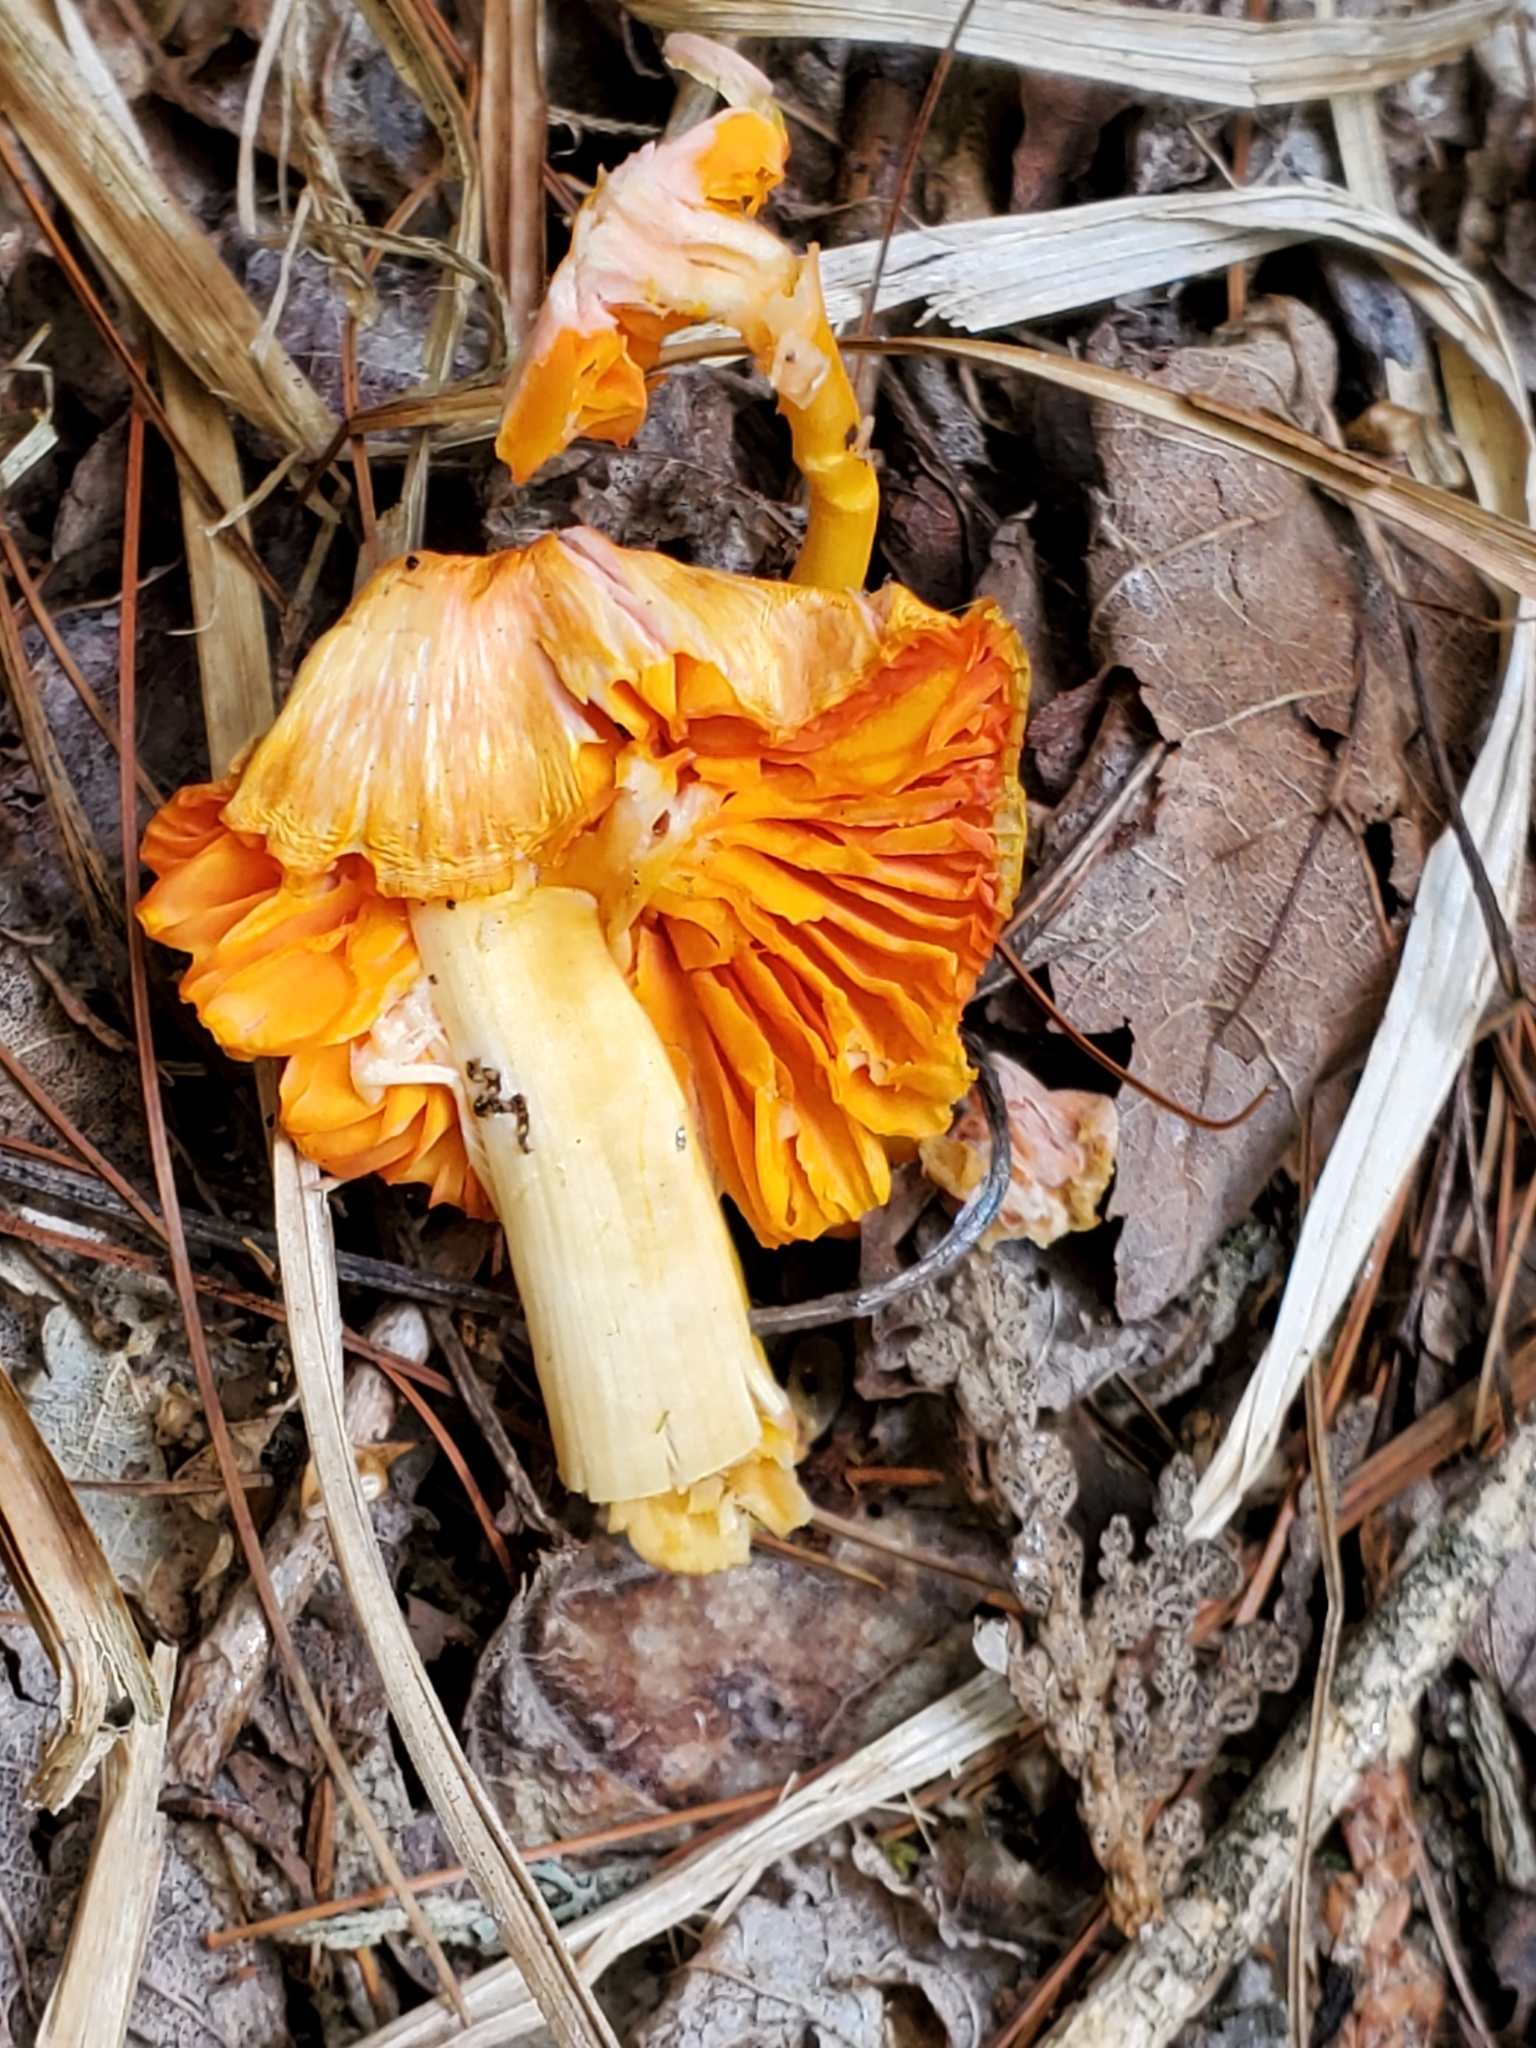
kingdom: Fungi
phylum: Basidiomycota
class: Agaricomycetes
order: Agaricales
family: Hygrophoraceae
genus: Humidicutis
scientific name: Humidicutis marginata
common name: Orange gilled waxcap
